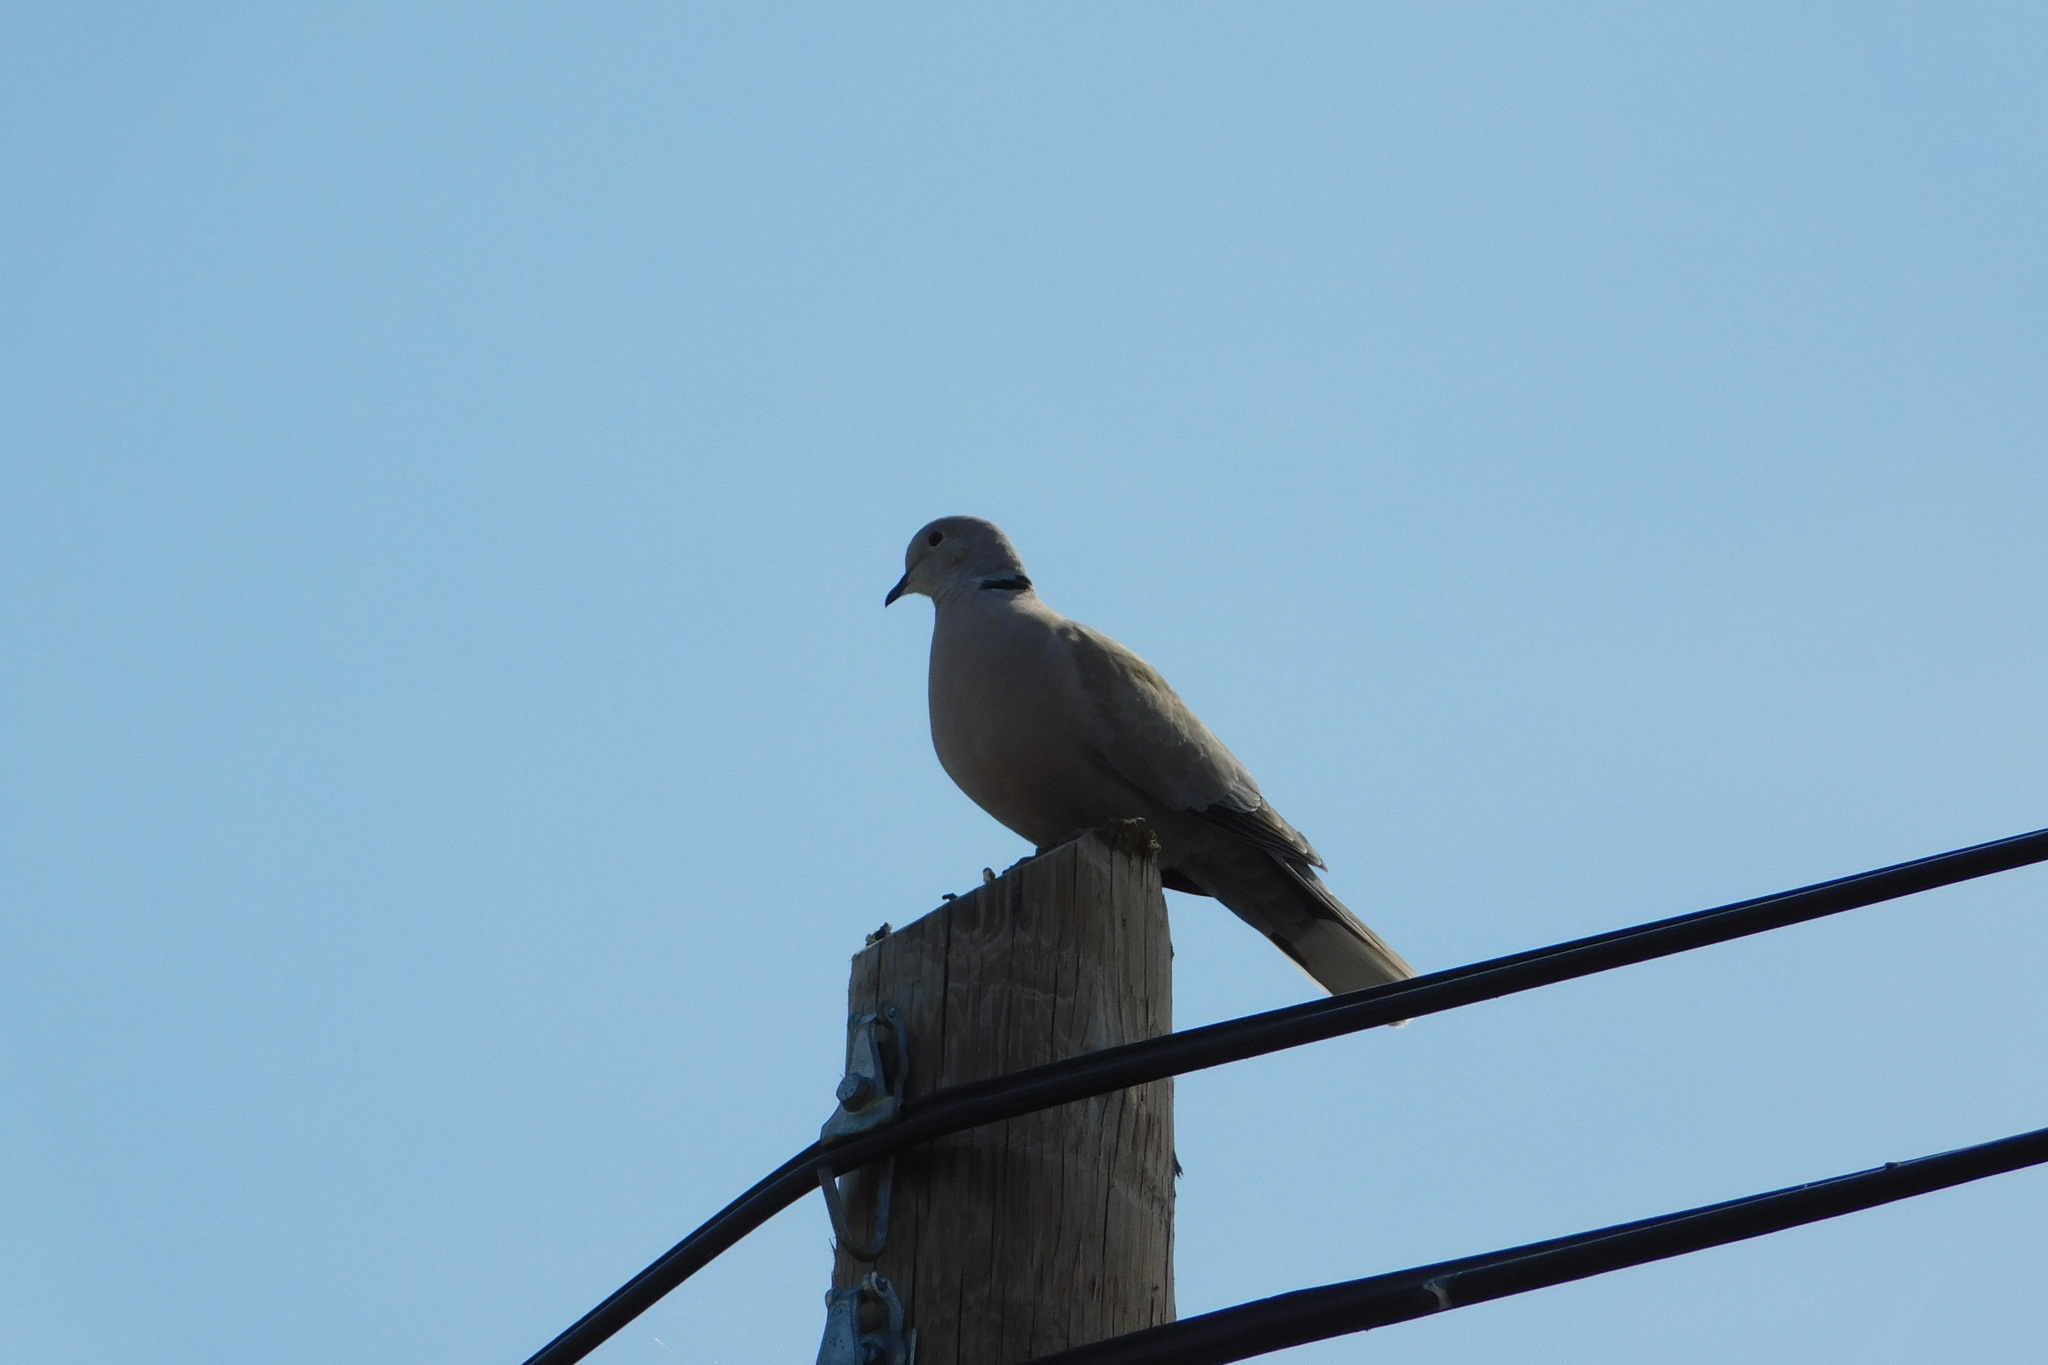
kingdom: Animalia
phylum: Chordata
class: Aves
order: Columbiformes
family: Columbidae
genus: Streptopelia
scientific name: Streptopelia decaocto
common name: Eurasian collared dove
